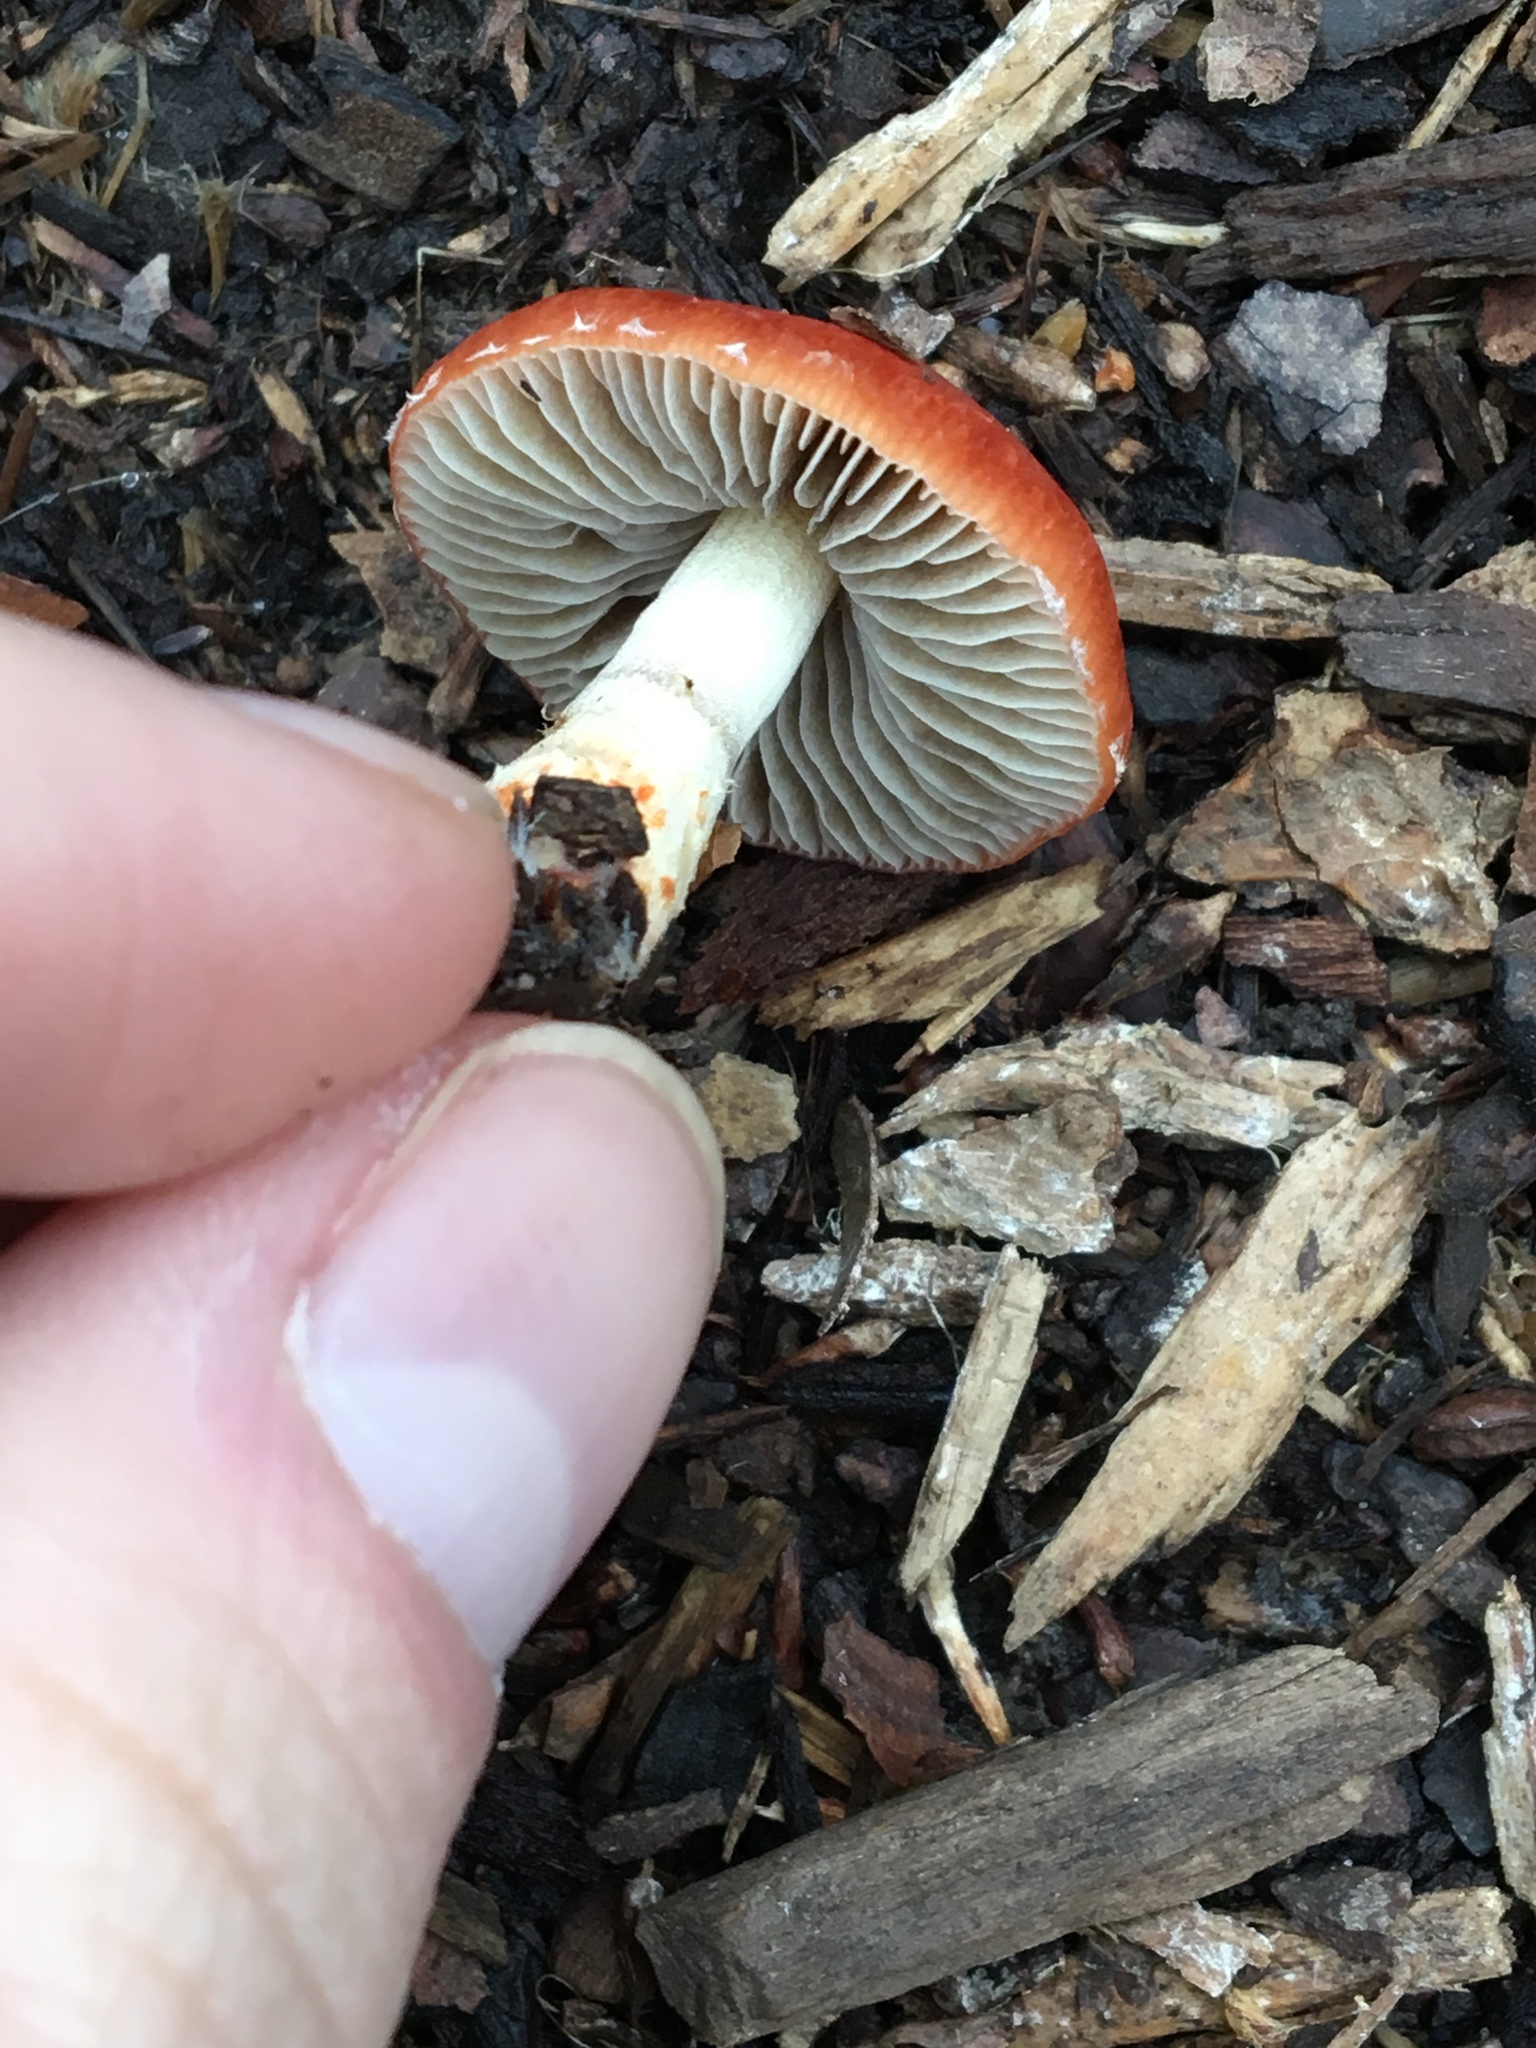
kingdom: Fungi
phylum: Basidiomycota
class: Agaricomycetes
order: Agaricales
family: Strophariaceae
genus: Leratiomyces
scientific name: Leratiomyces ceres
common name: Redlead roundhead
